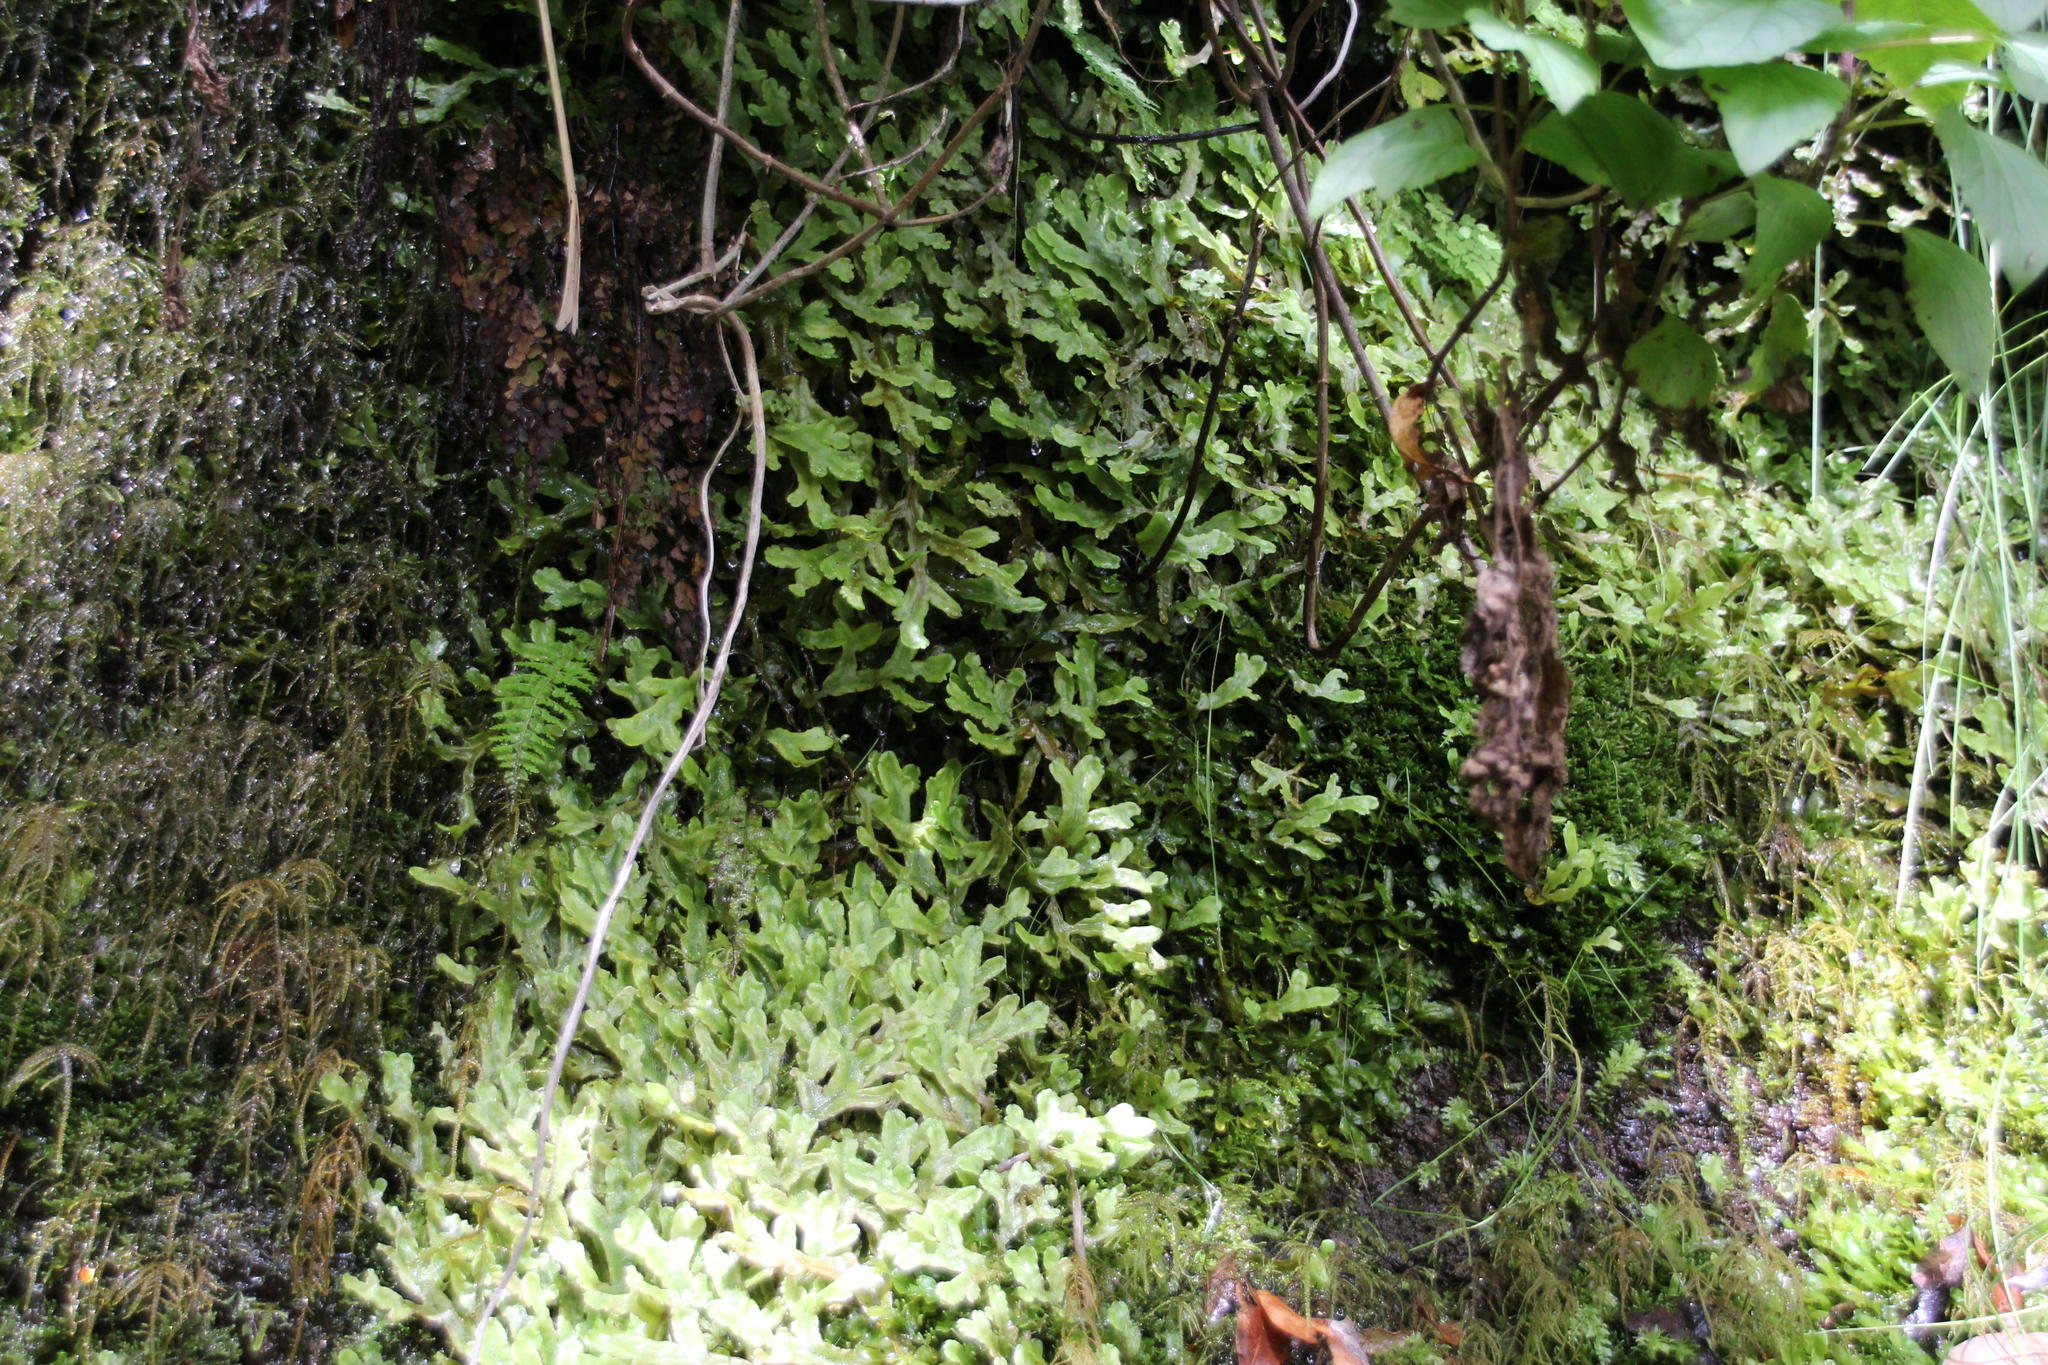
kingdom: Plantae
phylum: Marchantiophyta
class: Marchantiopsida
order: Marchantiales
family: Conocephalaceae
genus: Conocephalum
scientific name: Conocephalum conicum
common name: Great scented liverwort
